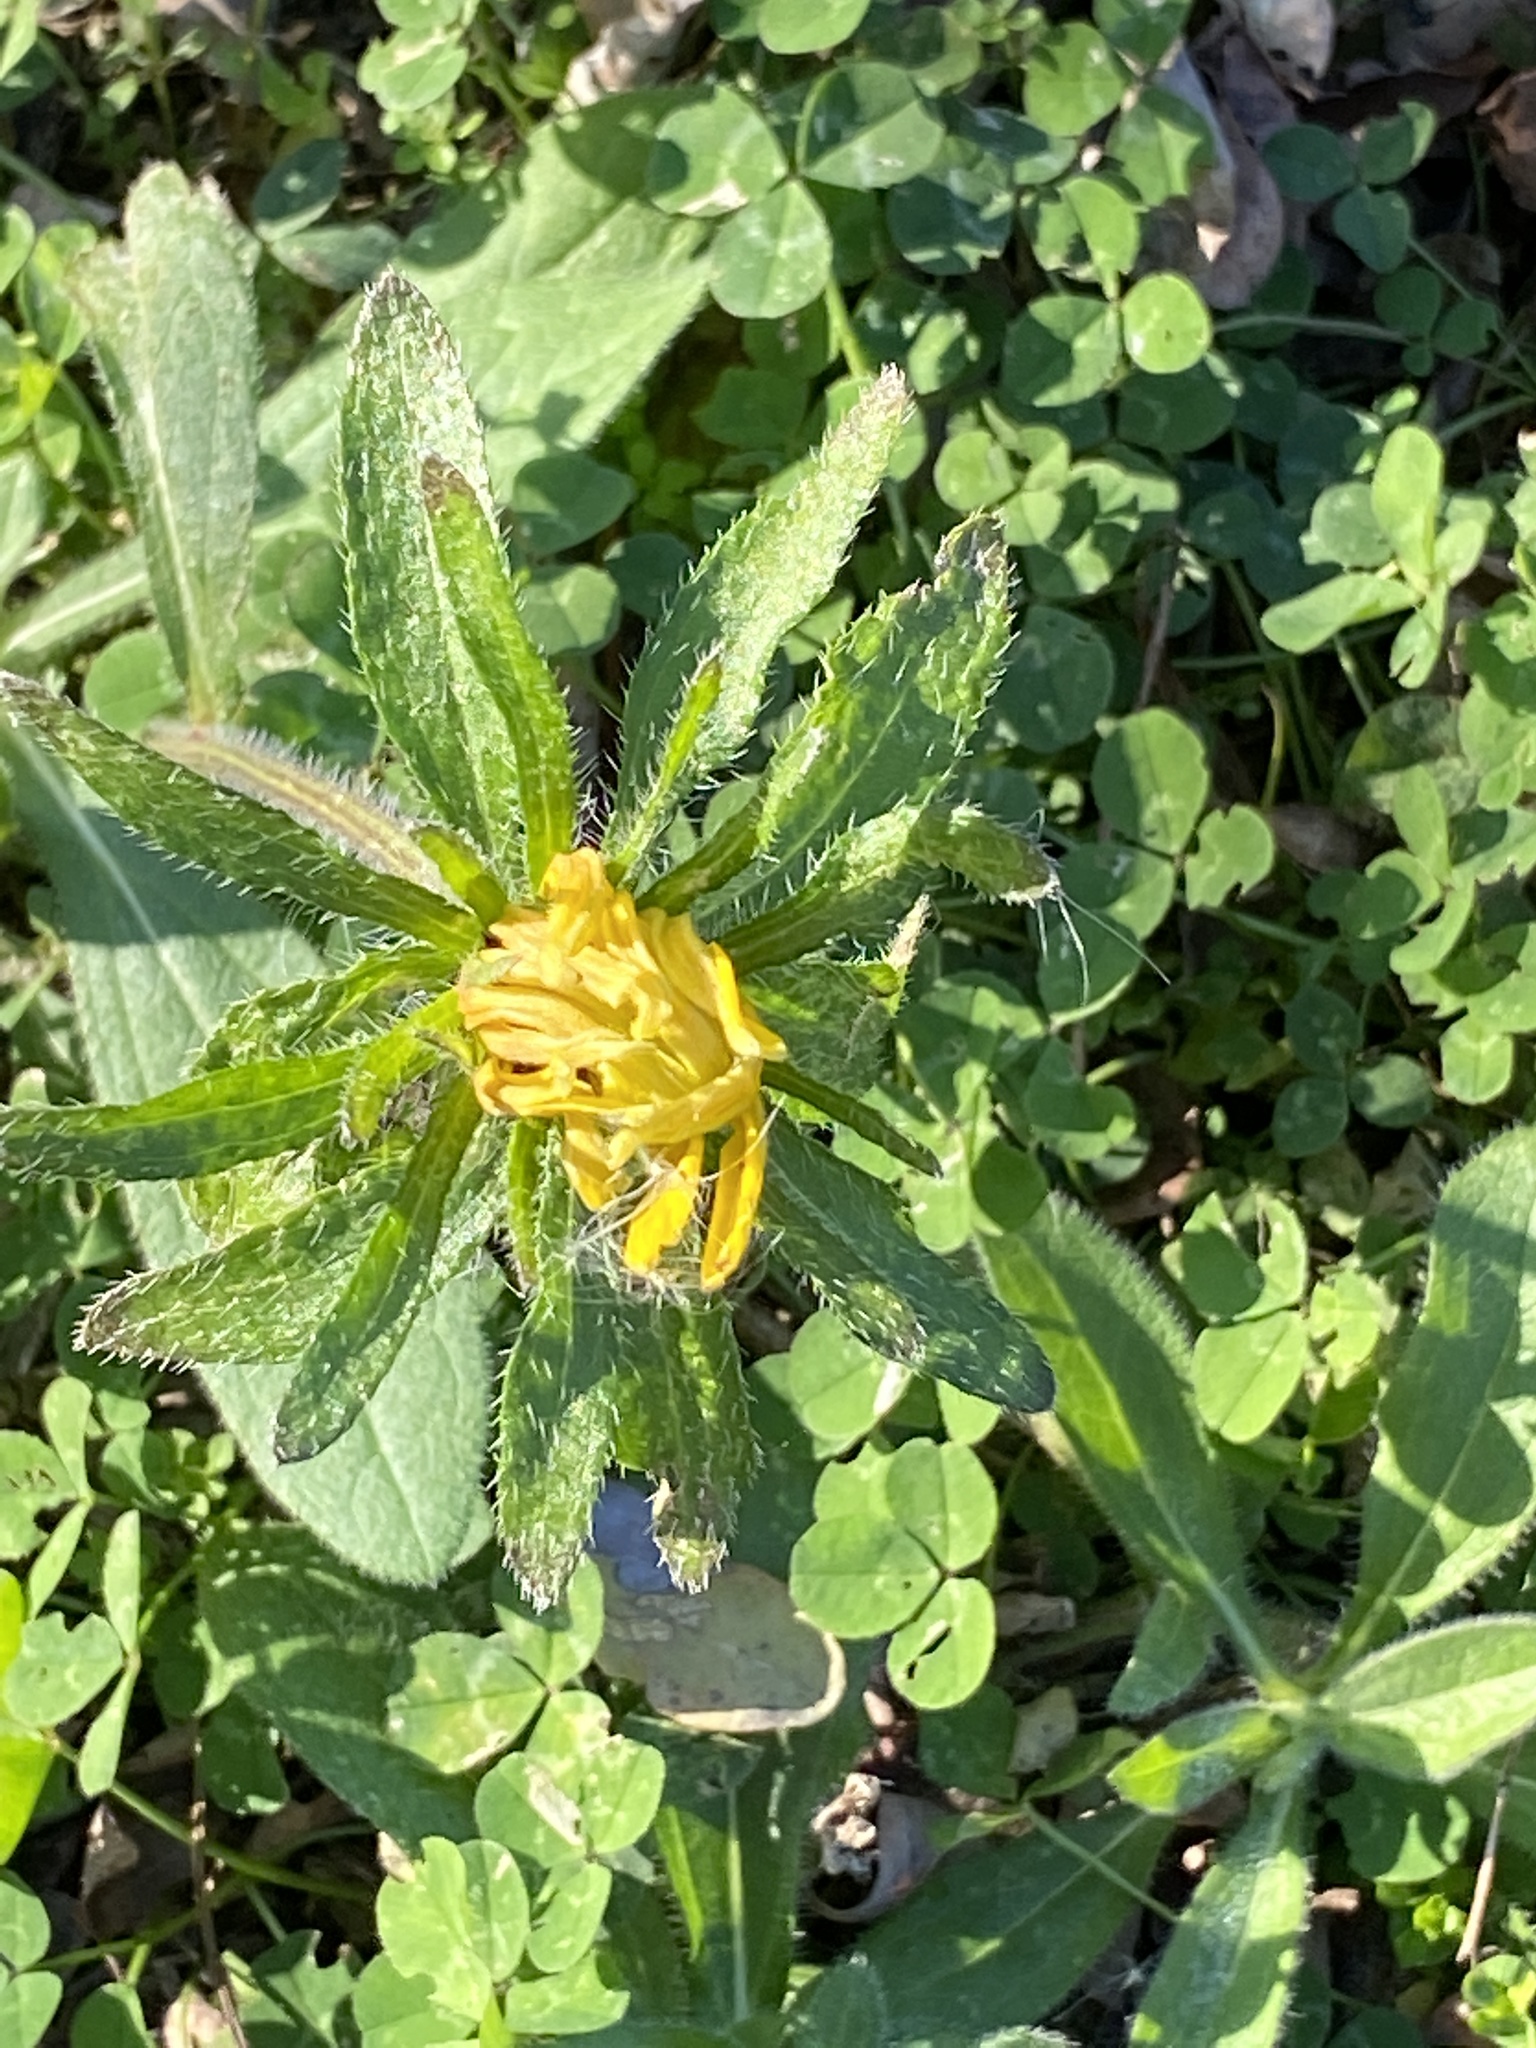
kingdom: Plantae
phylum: Tracheophyta
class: Magnoliopsida
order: Asterales
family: Asteraceae
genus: Rudbeckia
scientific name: Rudbeckia hirta
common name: Black-eyed-susan
